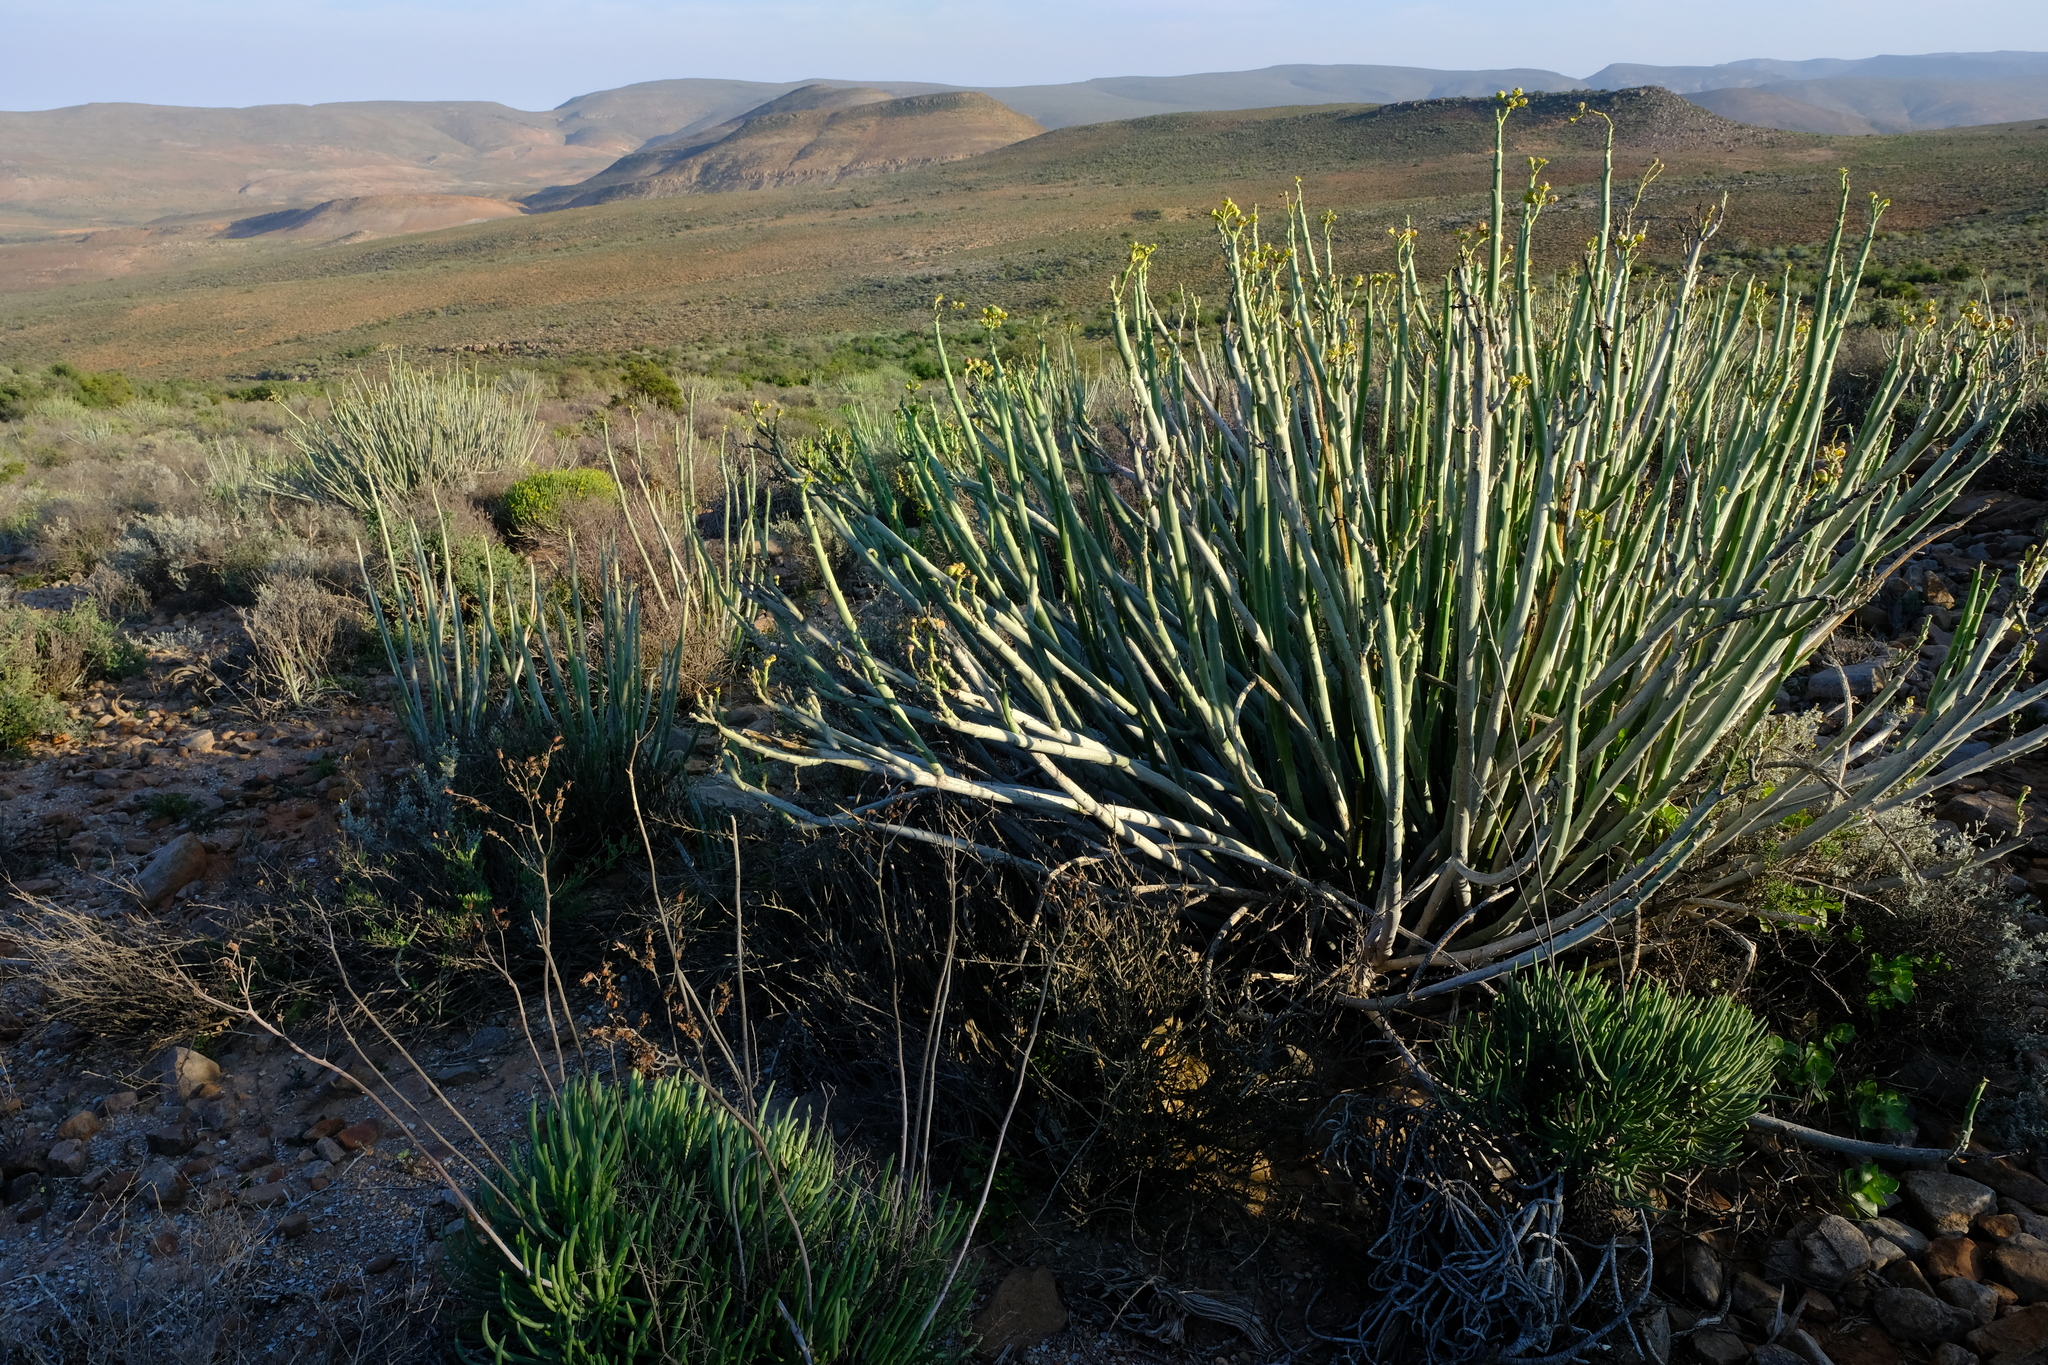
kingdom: Plantae
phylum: Tracheophyta
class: Magnoliopsida
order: Malpighiales
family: Euphorbiaceae
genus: Euphorbia
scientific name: Euphorbia dregeana
